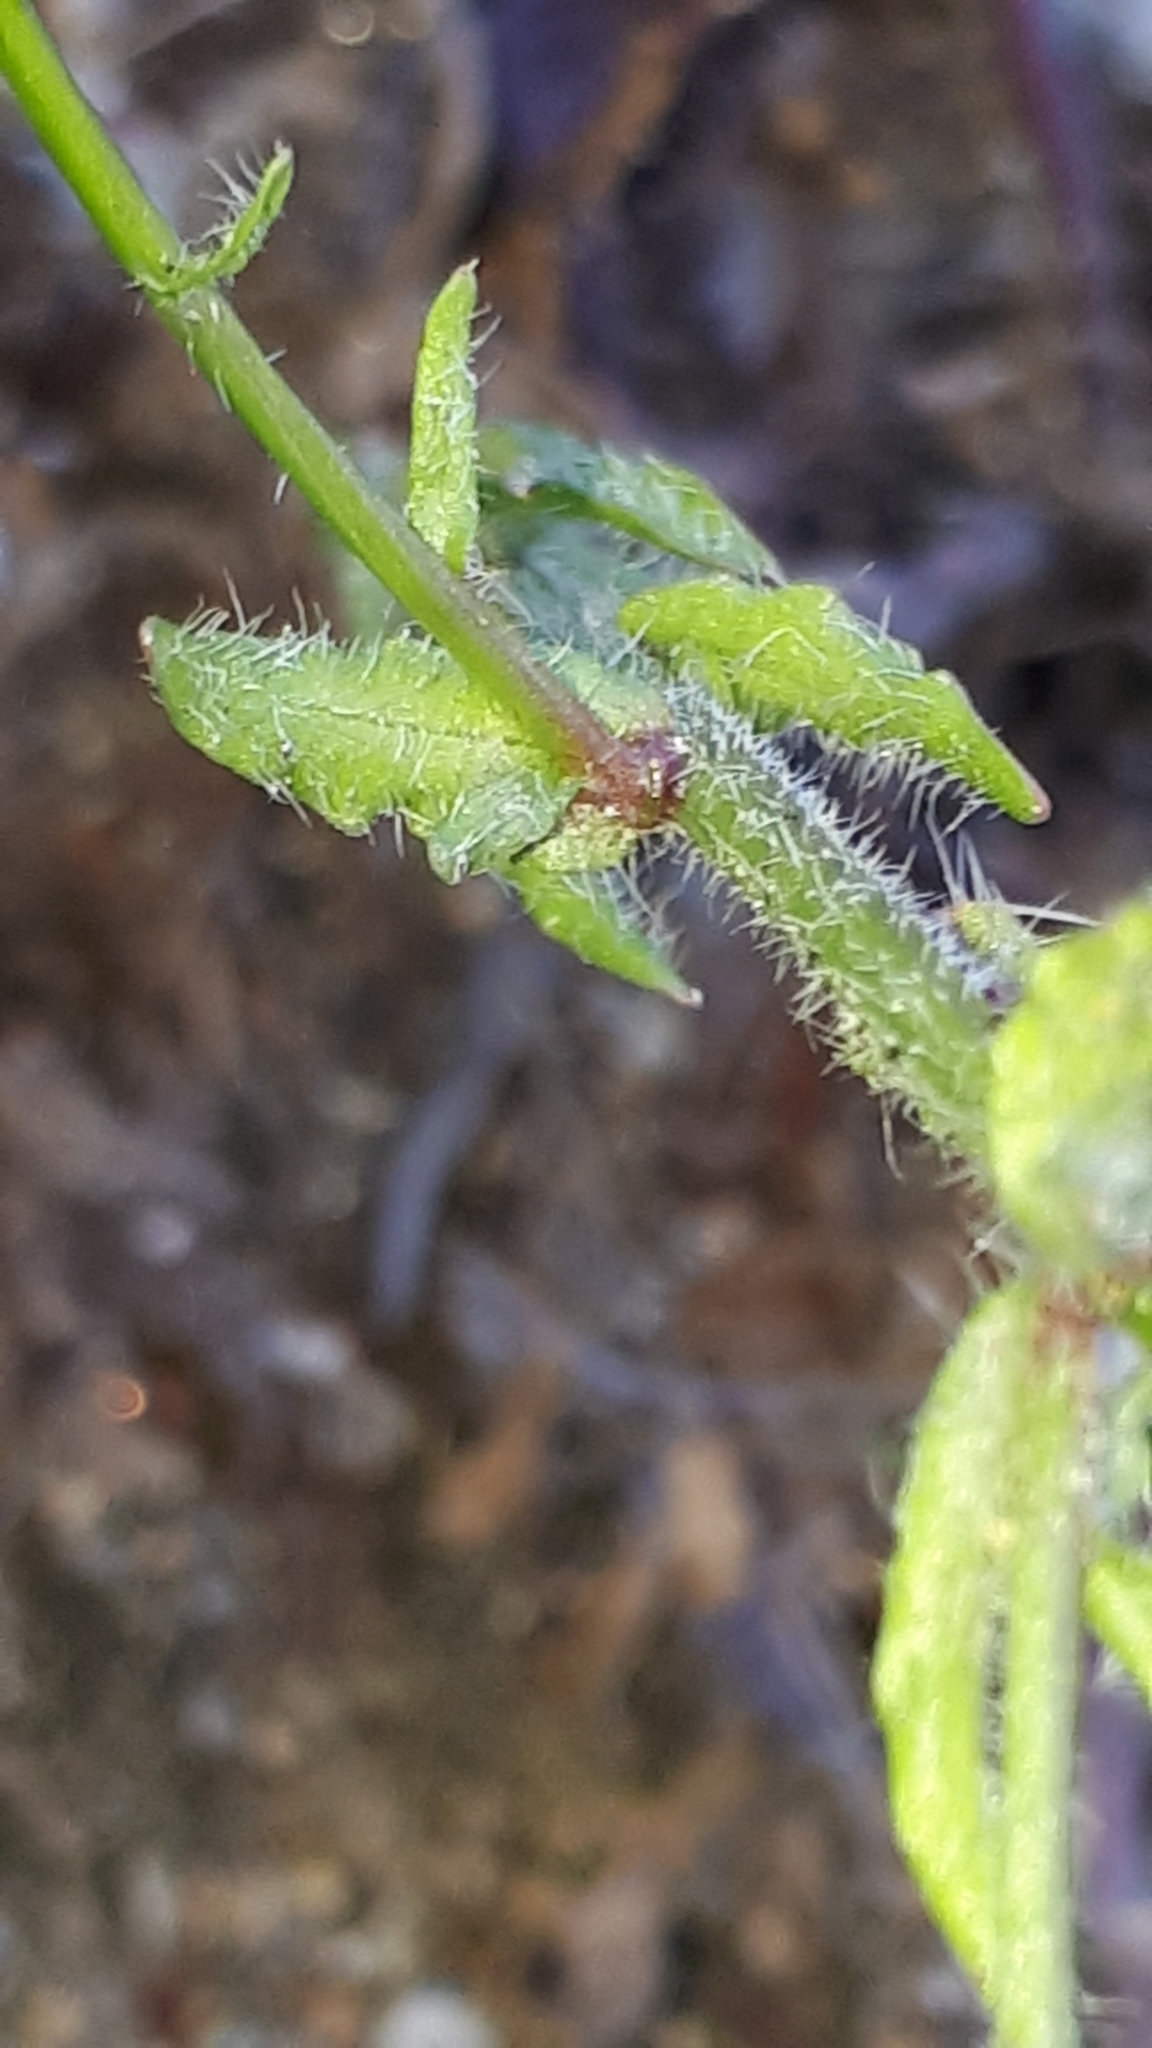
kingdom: Plantae
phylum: Tracheophyta
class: Magnoliopsida
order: Asterales
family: Campanulaceae
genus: Jasione
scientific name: Jasione montana
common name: Sheep's-bit
